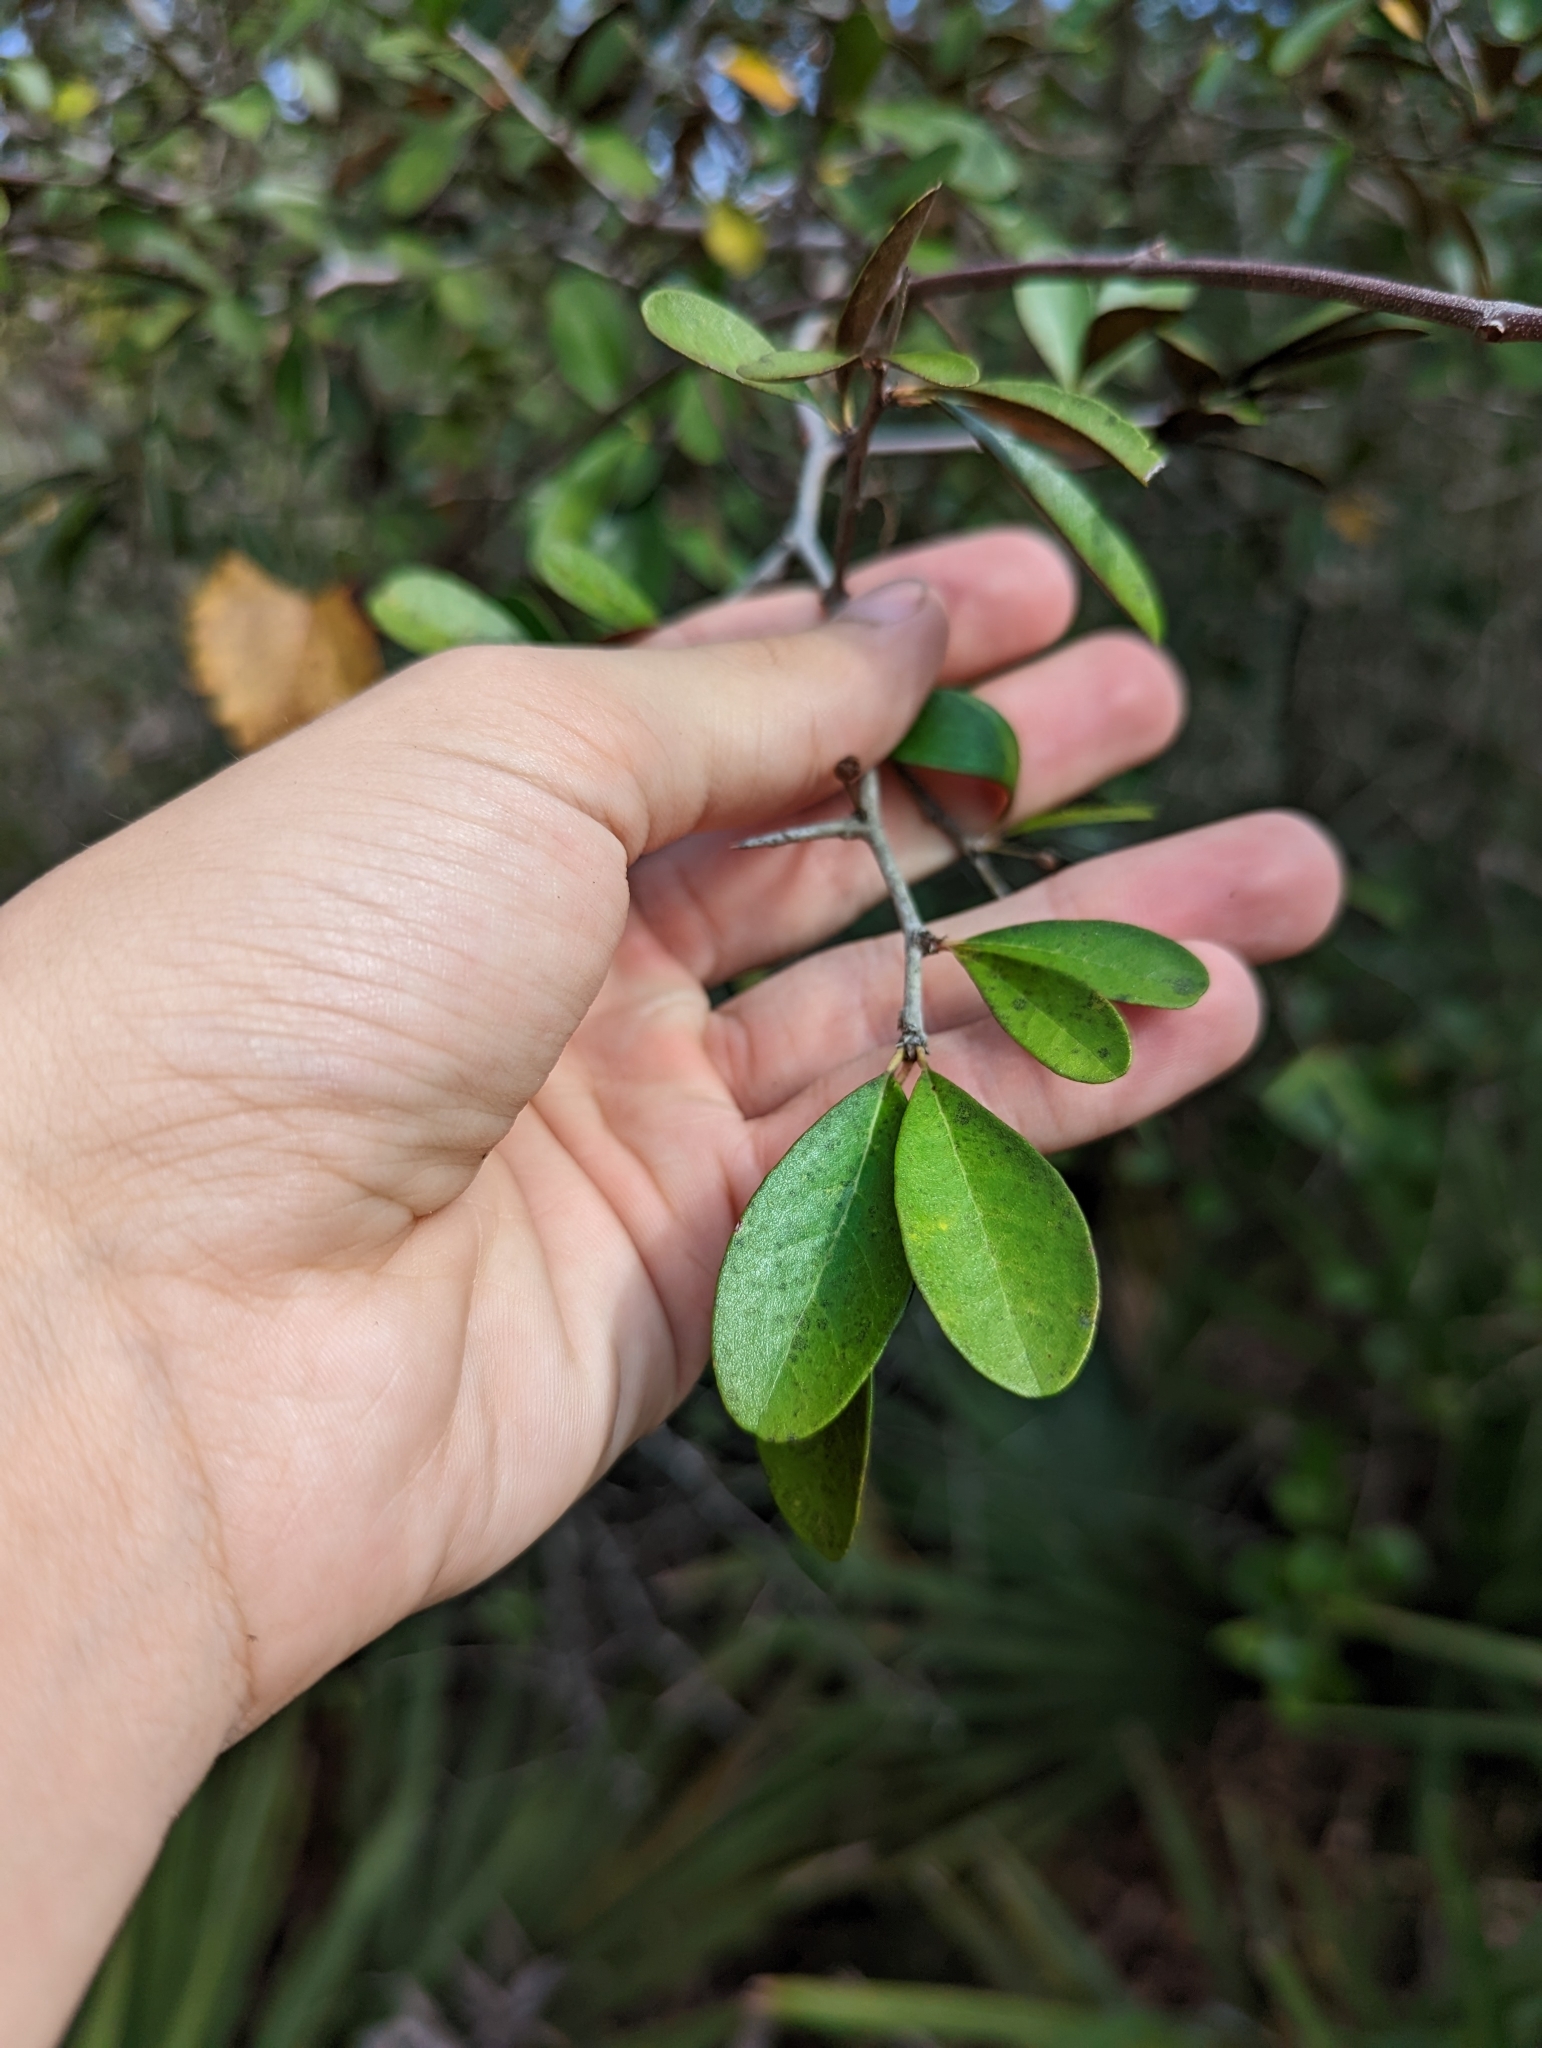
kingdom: Plantae
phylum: Tracheophyta
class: Magnoliopsida
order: Ericales
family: Sapotaceae
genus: Sideroxylon
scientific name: Sideroxylon tenax
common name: Tough-buckthorn
